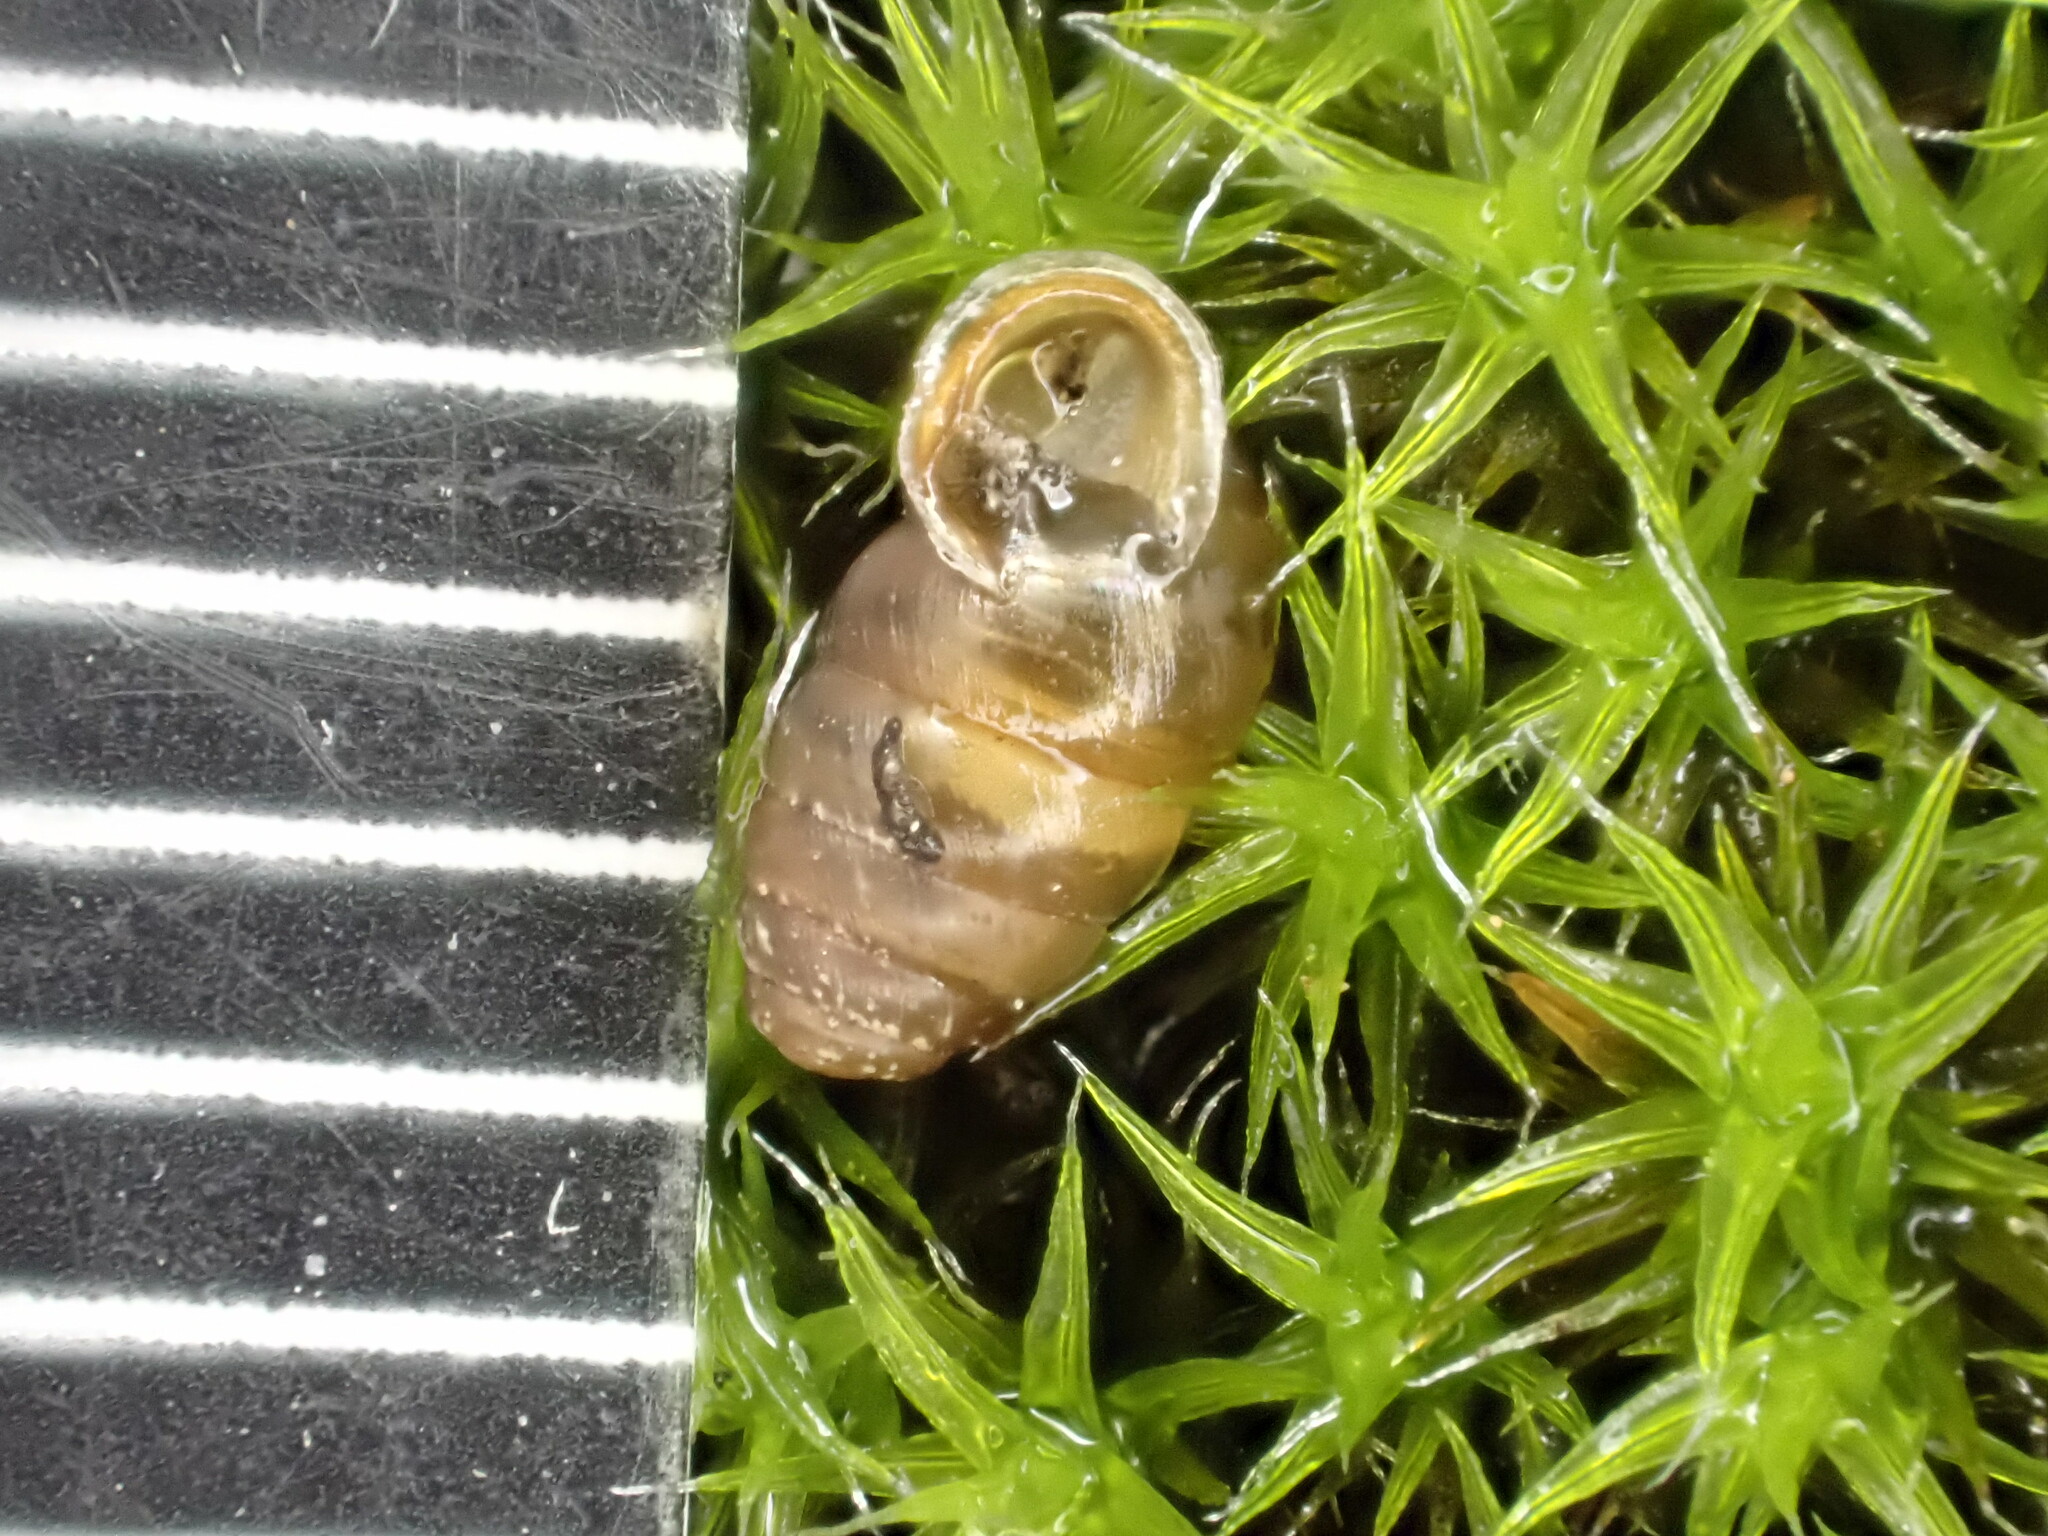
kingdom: Animalia
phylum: Mollusca
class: Gastropoda
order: Stylommatophora
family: Lauriidae
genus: Lauria
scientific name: Lauria cylindracea
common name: Common chrysalis snail
